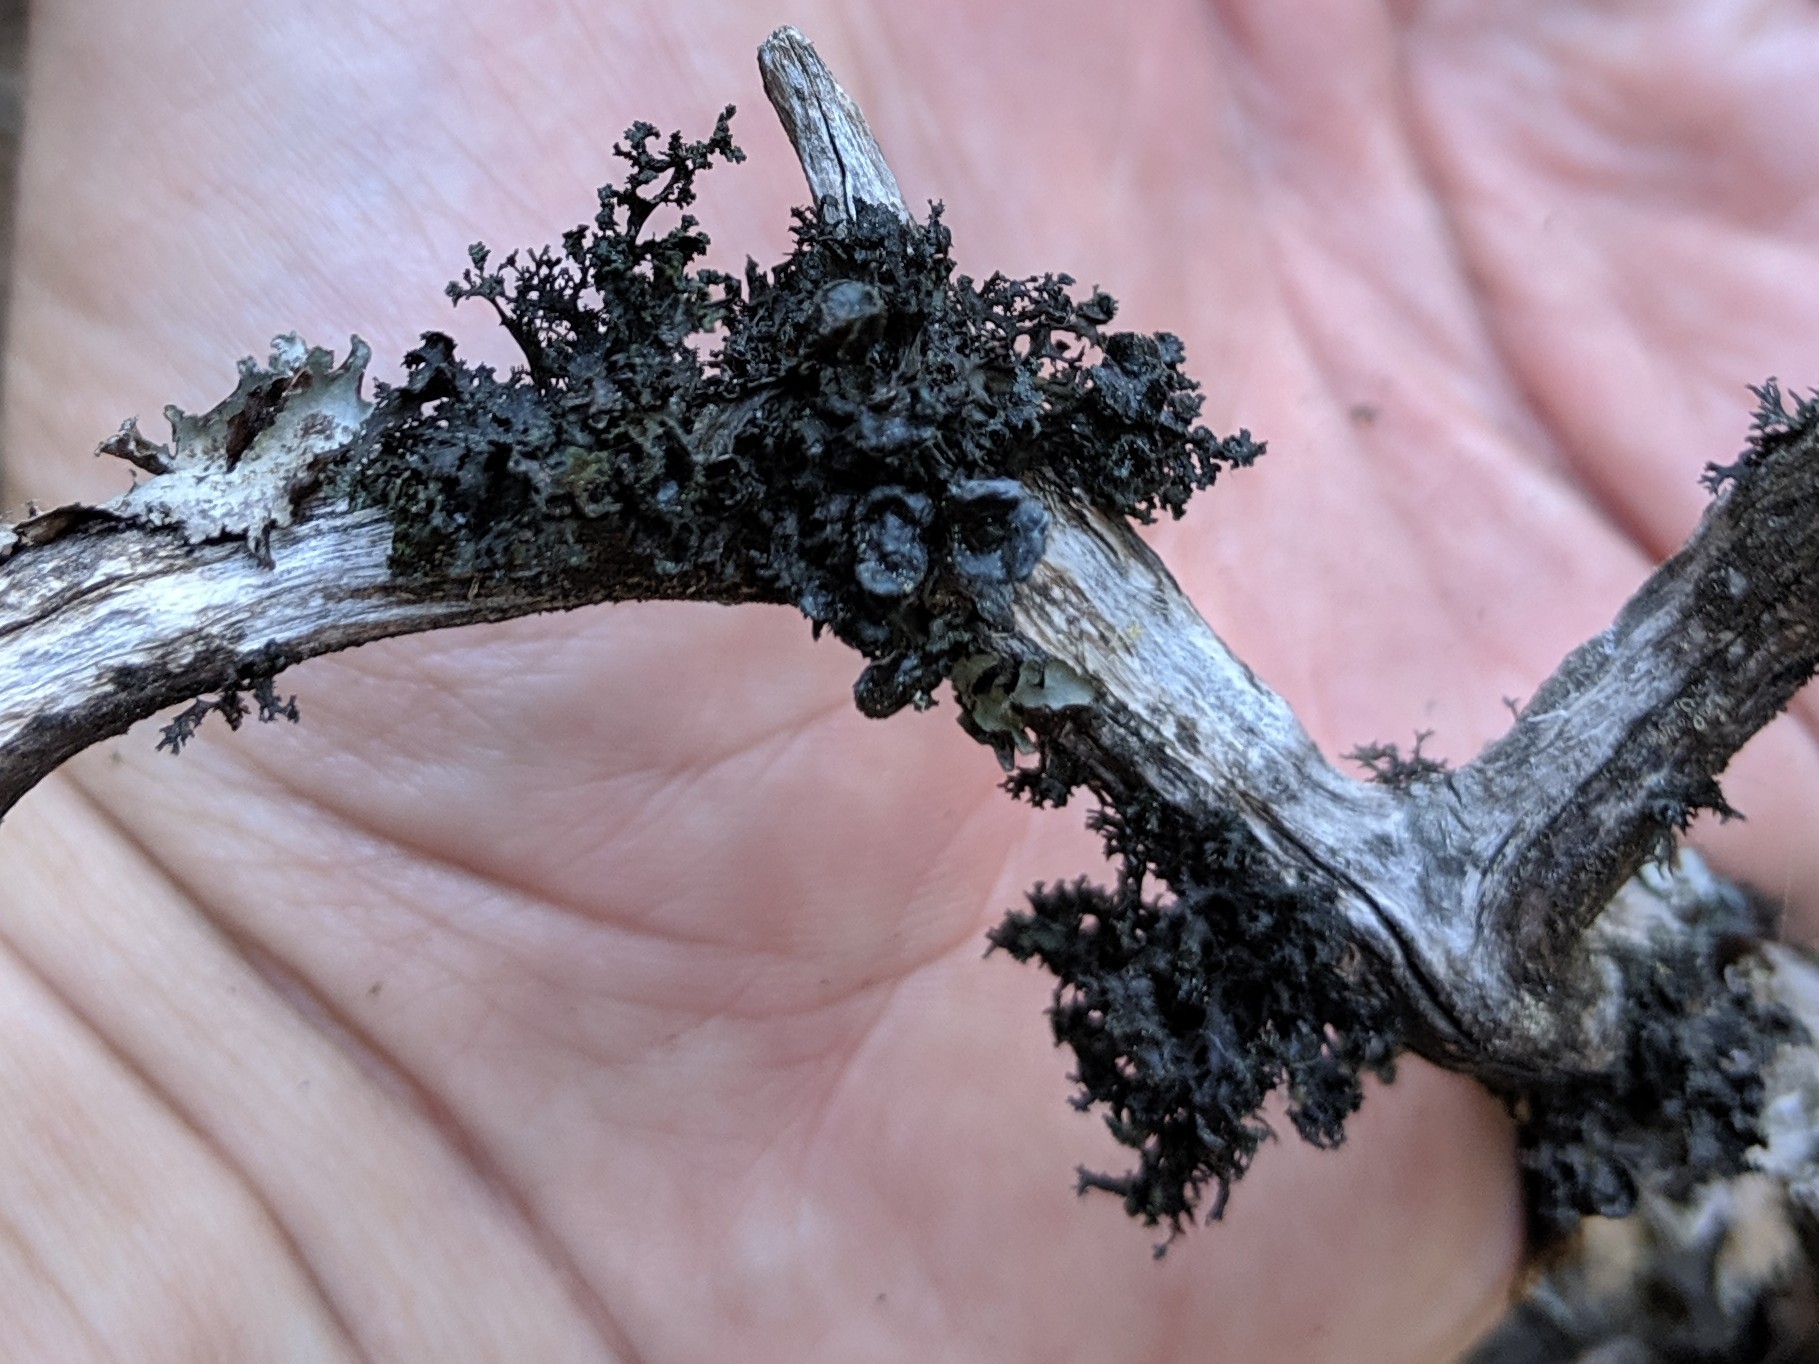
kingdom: Fungi
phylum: Ascomycota
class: Lecanoromycetes
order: Lecanorales
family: Parmeliaceae
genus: Nephromopsis
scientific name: Nephromopsis merrillii
